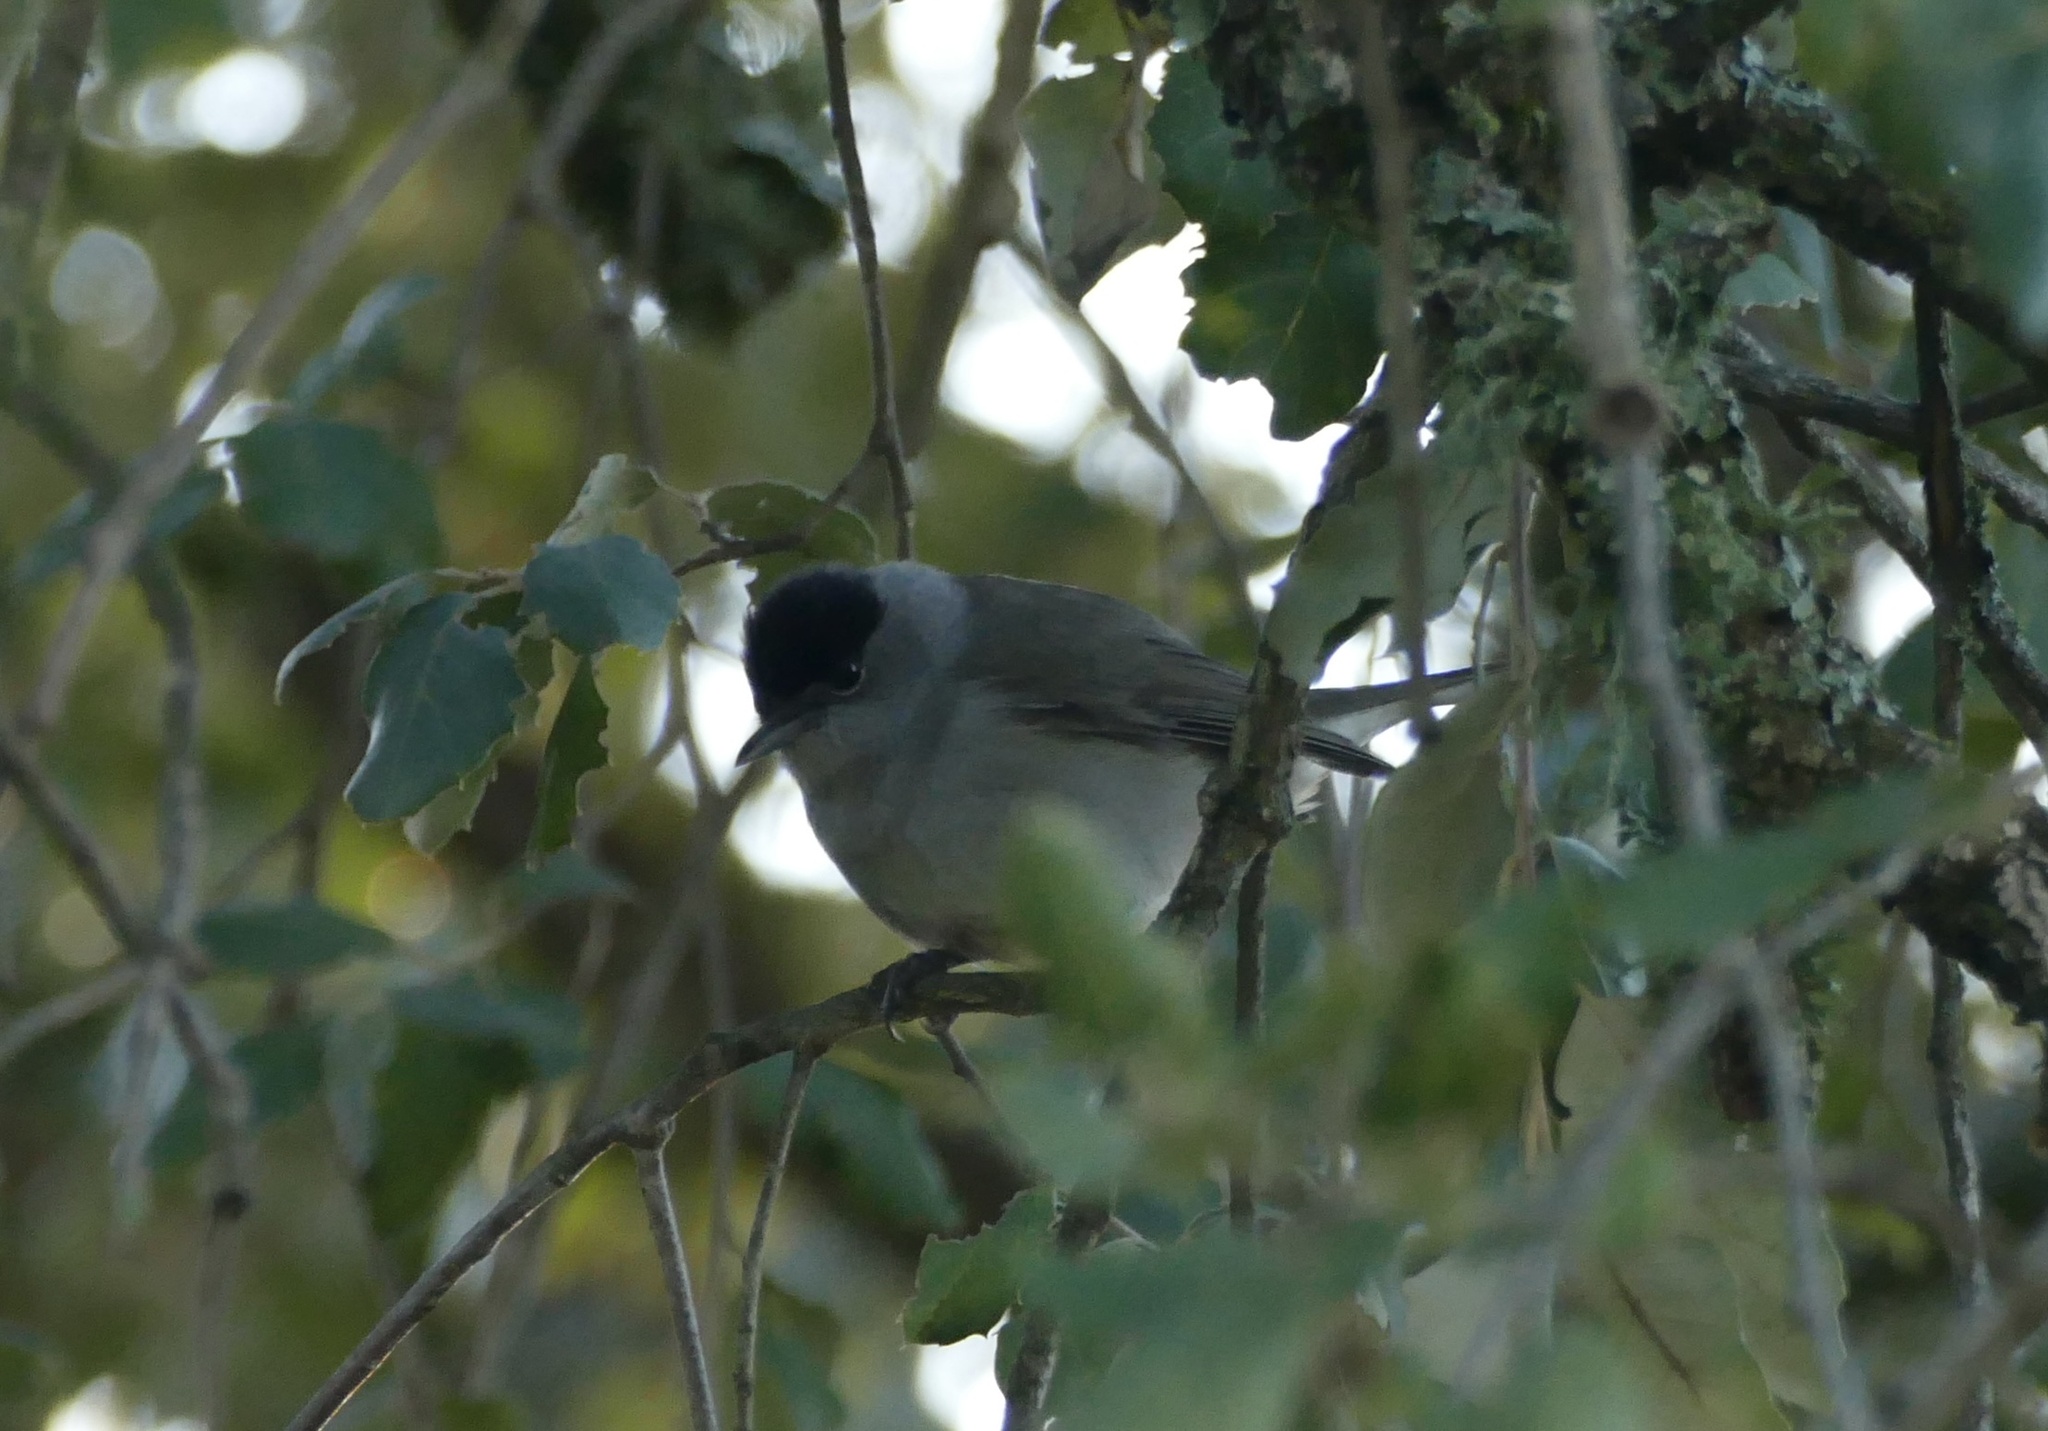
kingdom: Animalia
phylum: Chordata
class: Aves
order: Passeriformes
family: Sylviidae
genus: Sylvia
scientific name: Sylvia atricapilla
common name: Eurasian blackcap
